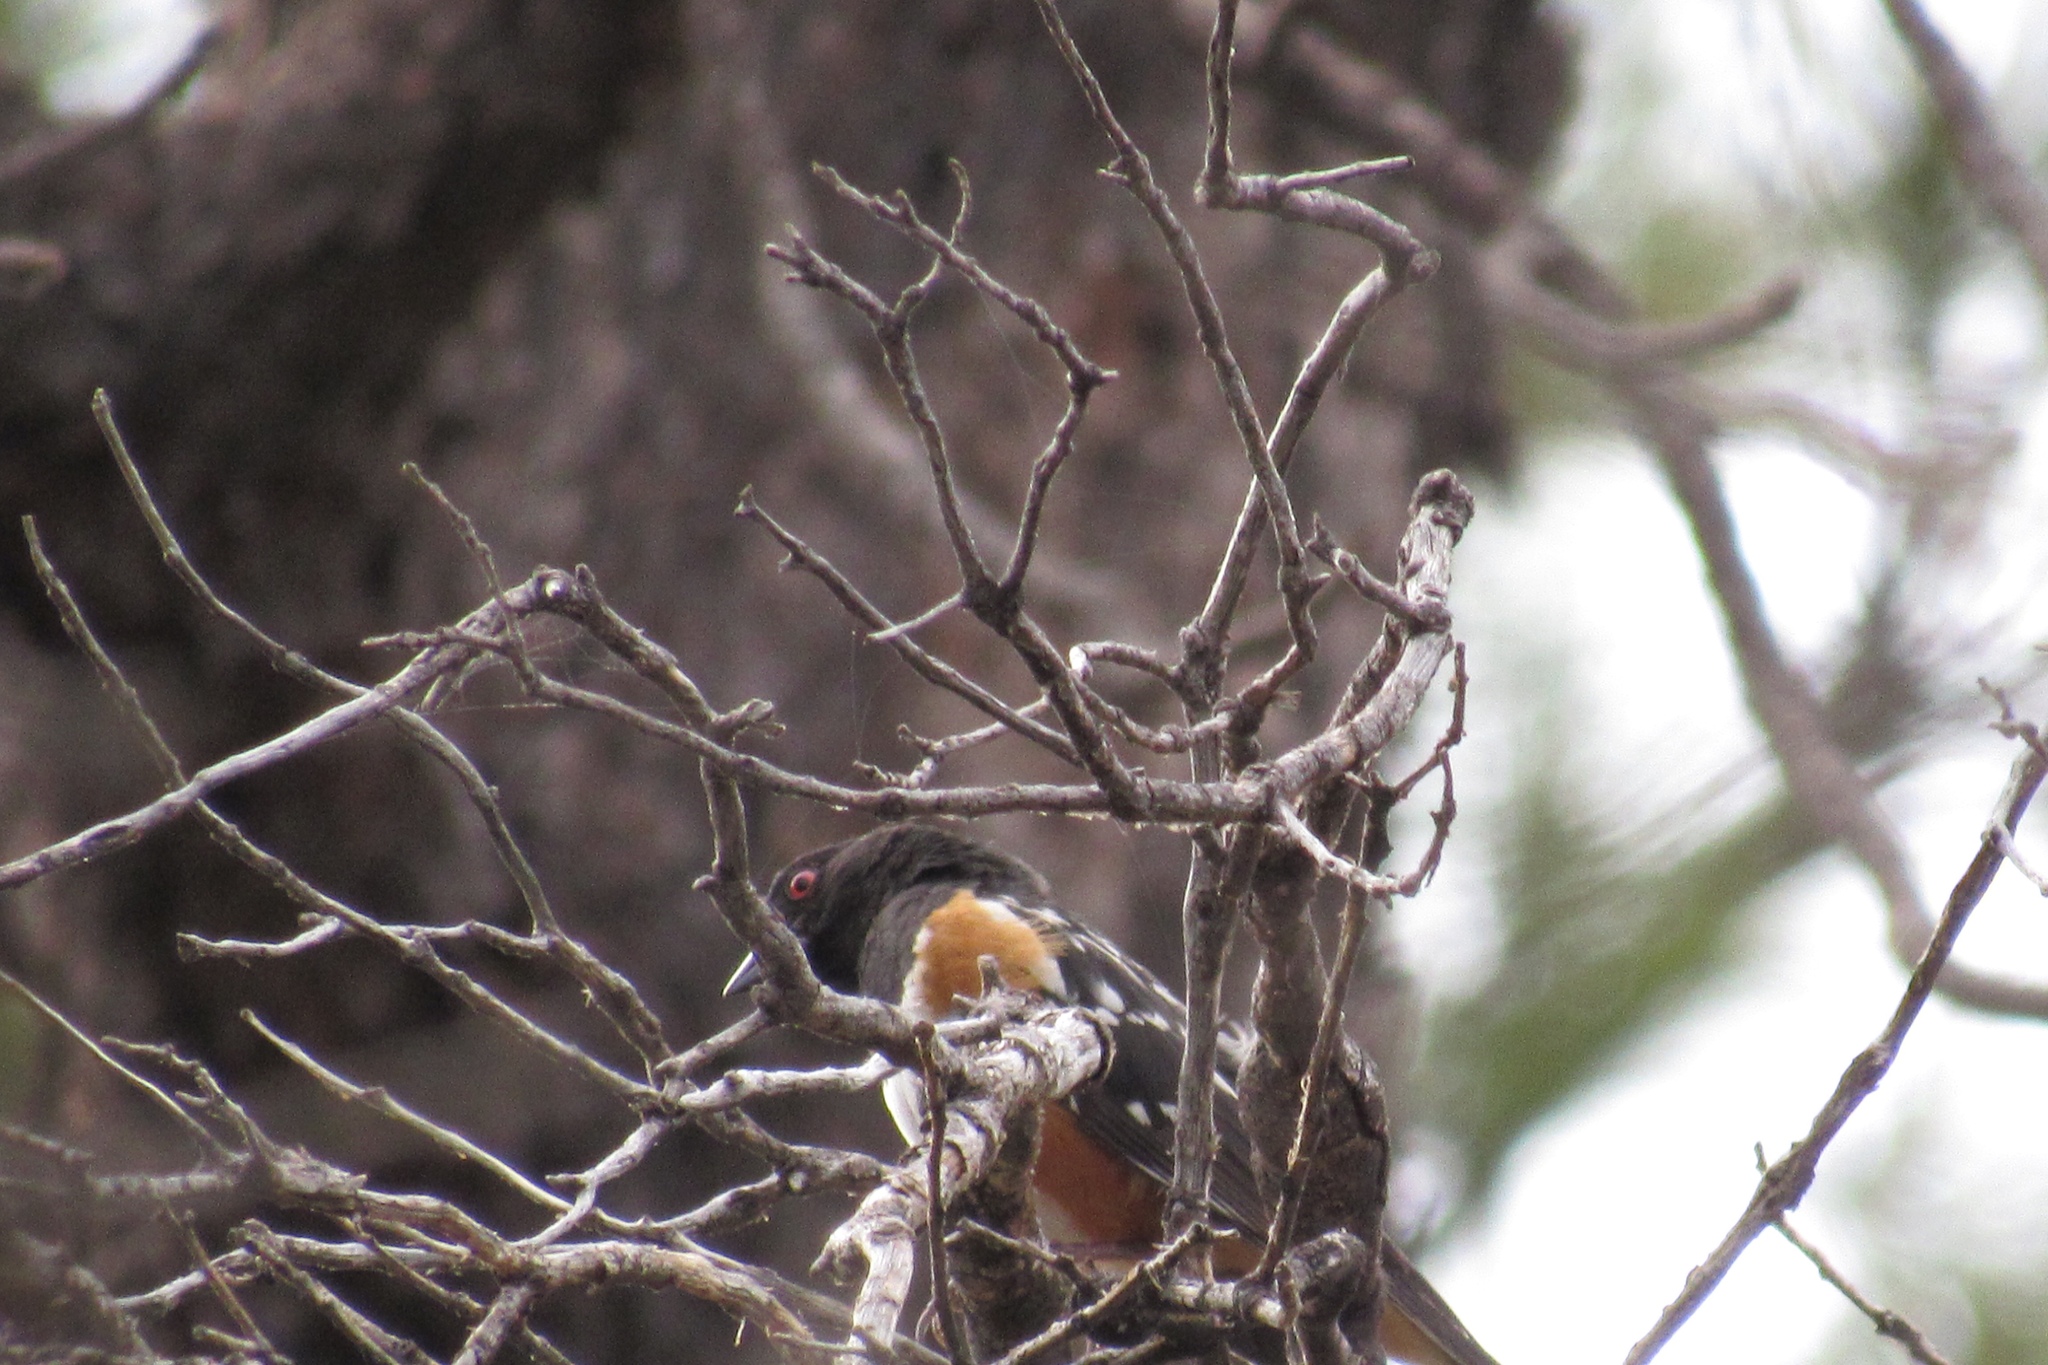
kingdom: Animalia
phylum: Chordata
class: Aves
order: Passeriformes
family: Passerellidae
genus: Pipilo
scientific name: Pipilo maculatus
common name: Spotted towhee
